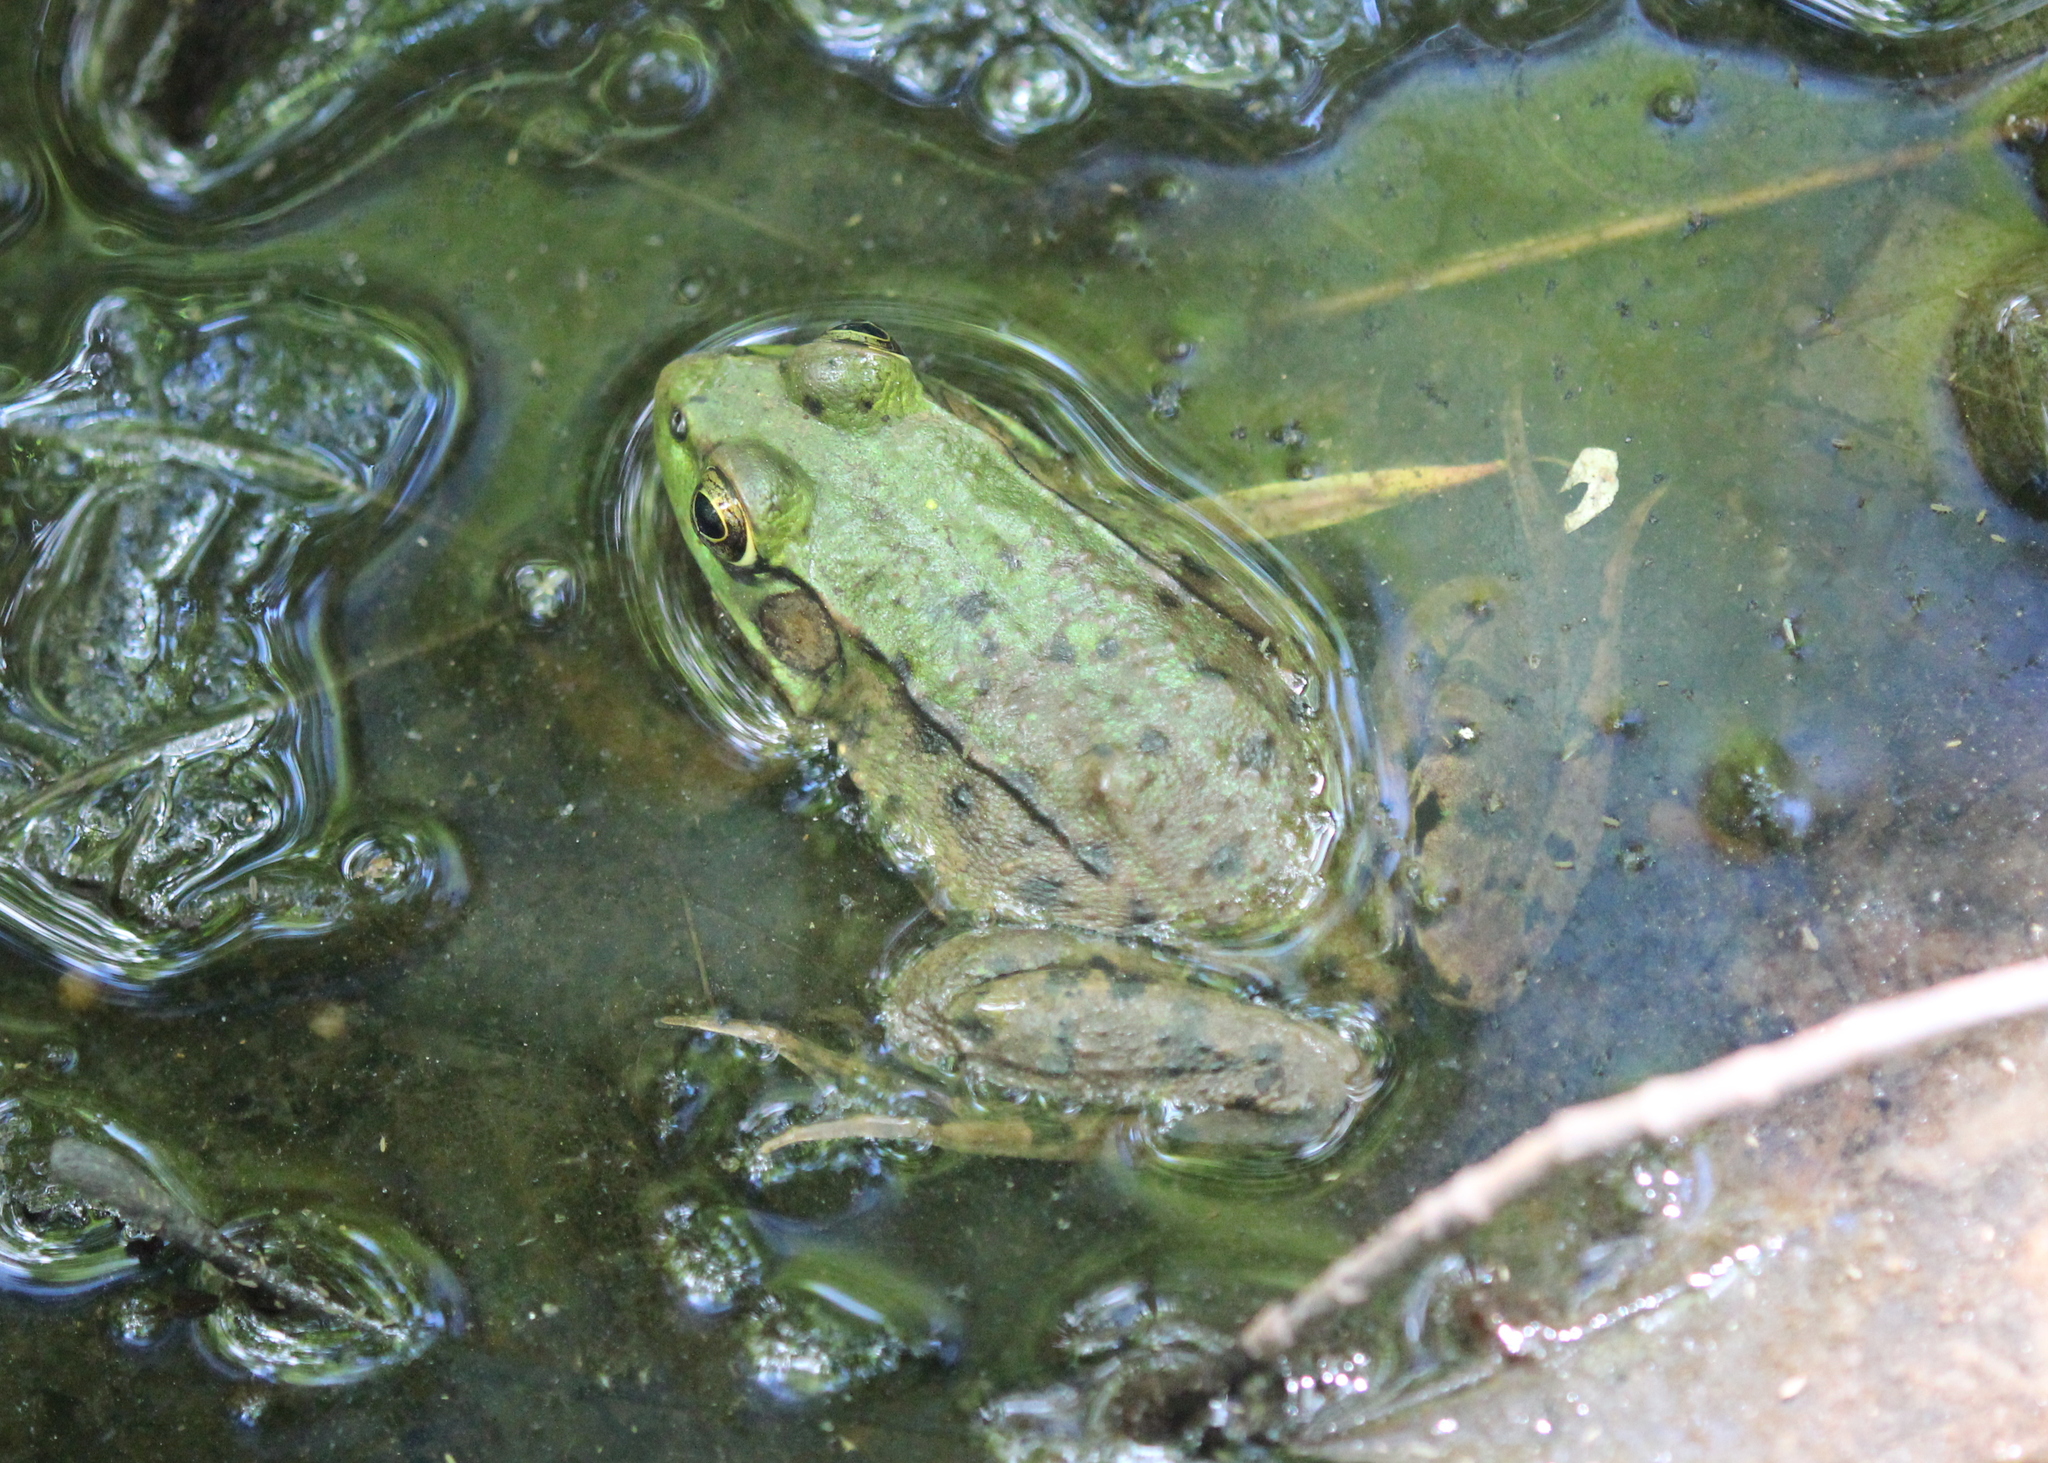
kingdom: Animalia
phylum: Chordata
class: Amphibia
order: Anura
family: Ranidae
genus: Lithobates
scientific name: Lithobates clamitans
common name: Green frog
